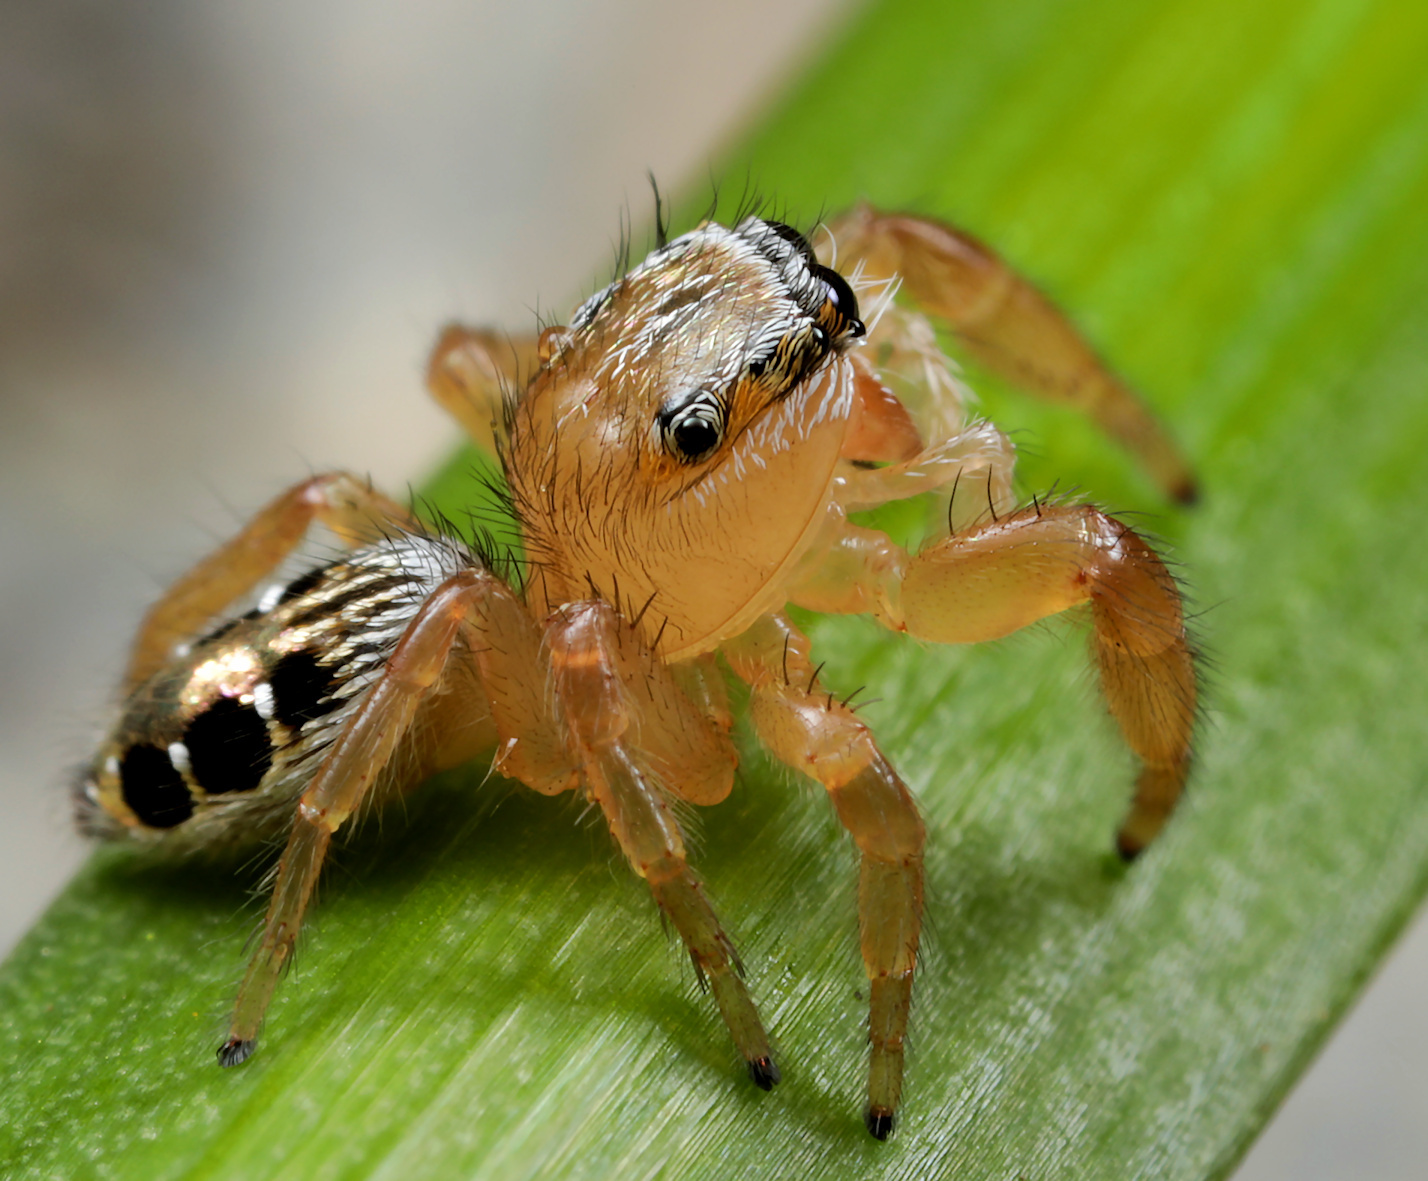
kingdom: Animalia
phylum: Arthropoda
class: Arachnida
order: Araneae
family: Salticidae
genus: Thyene
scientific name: Thyene coccineovittata
